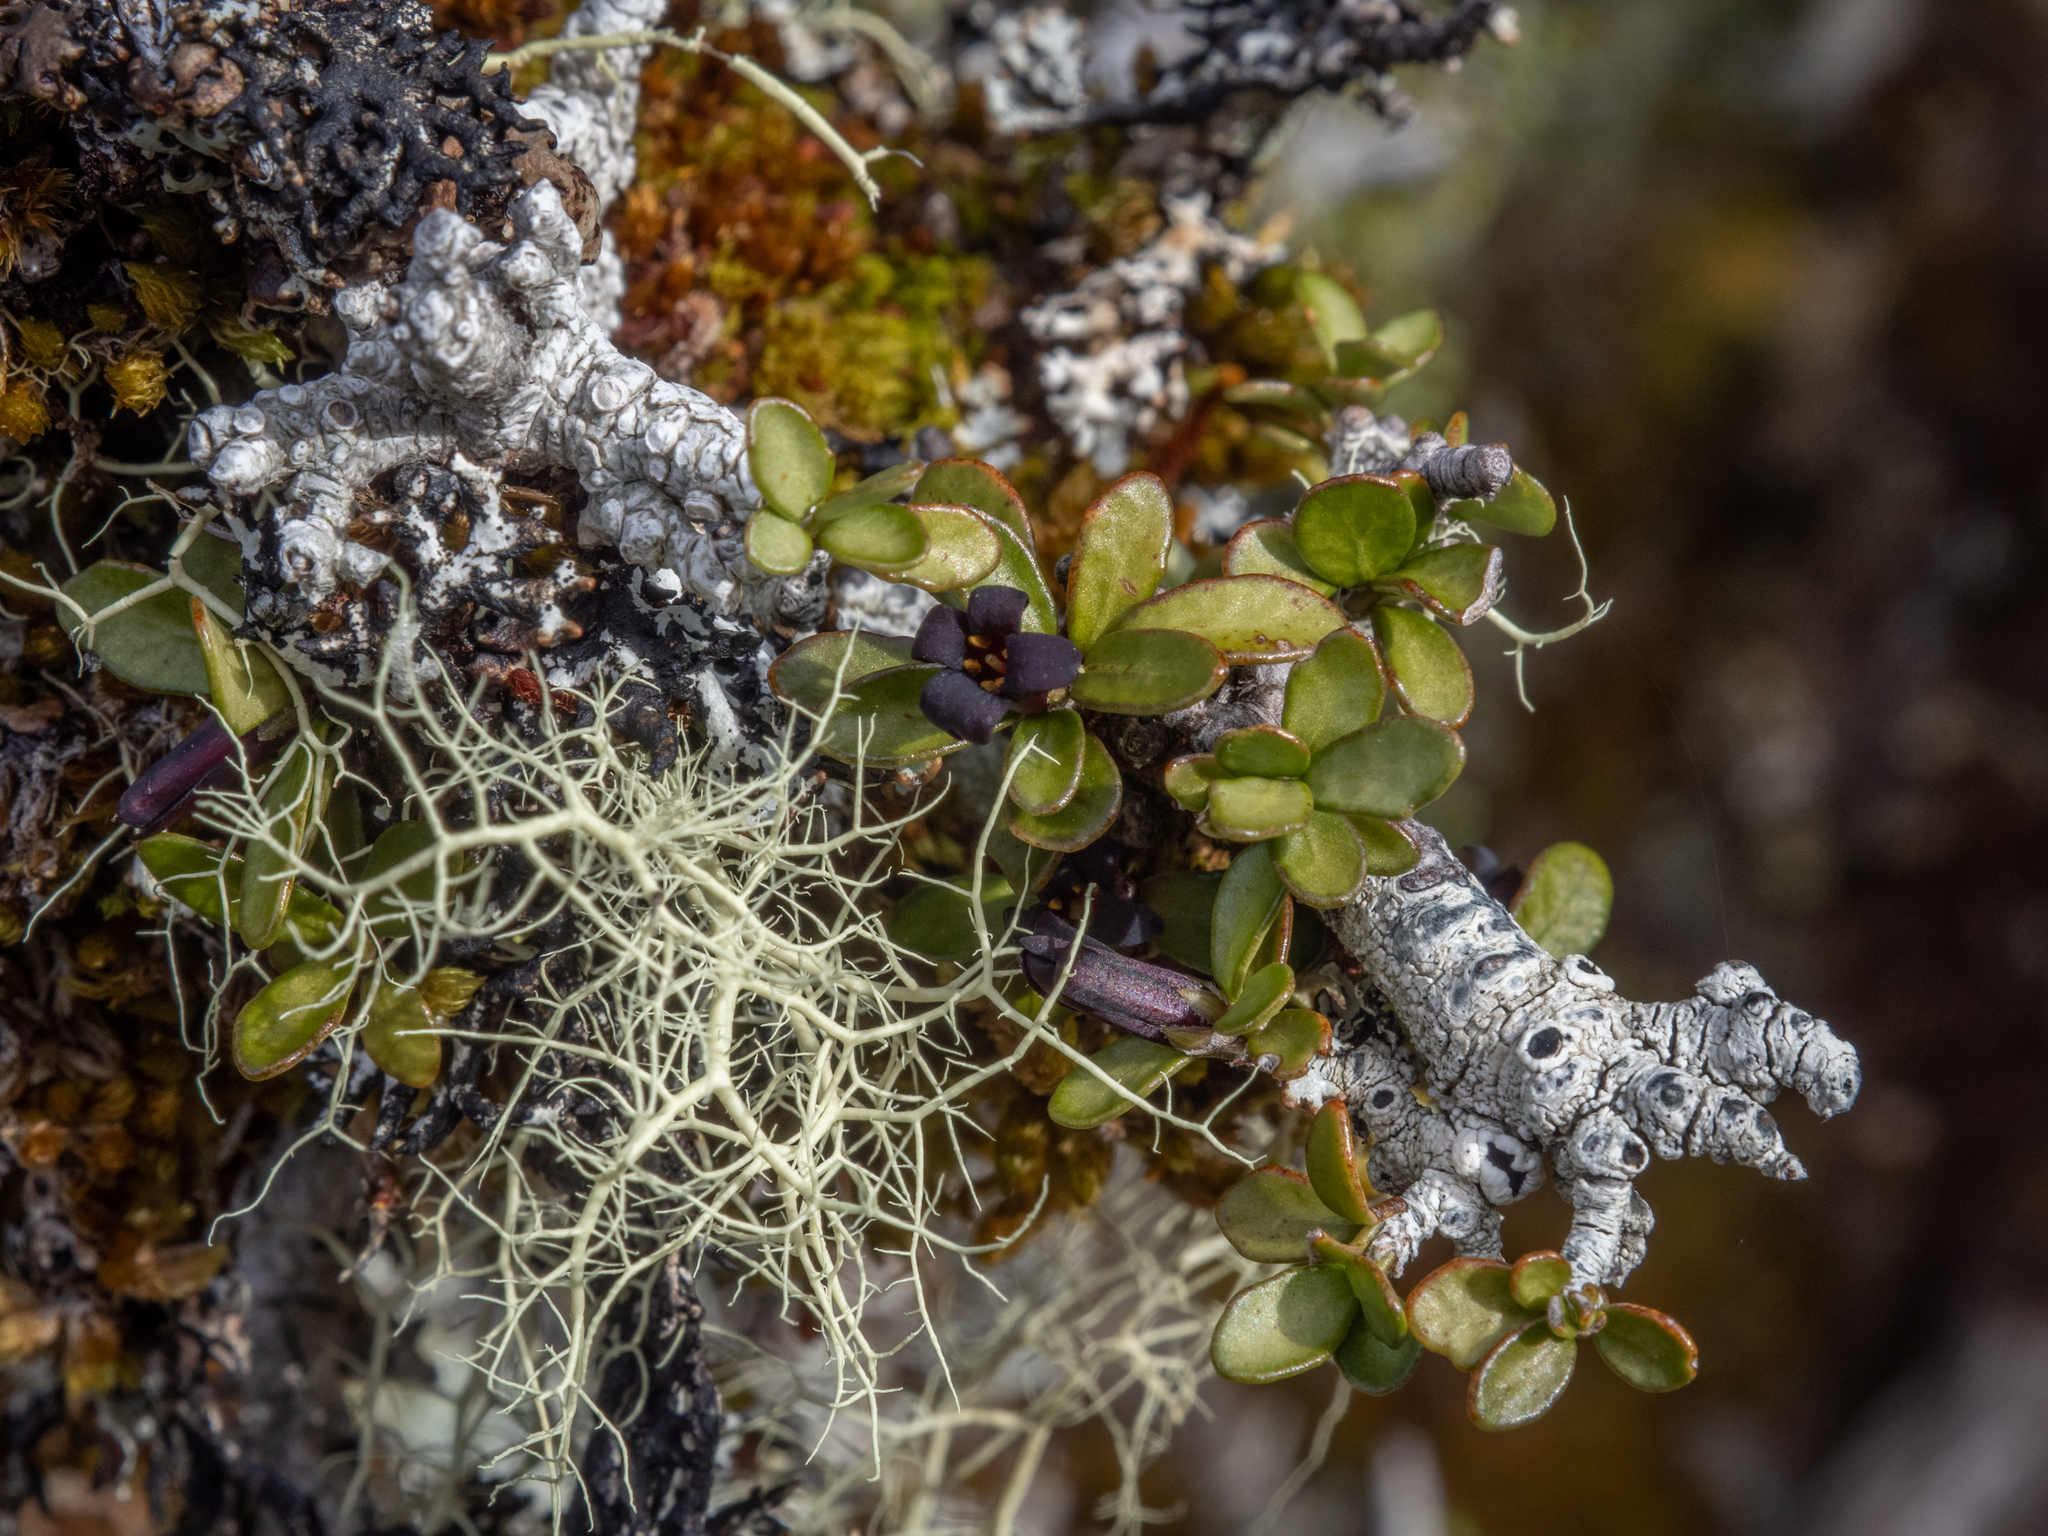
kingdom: Plantae
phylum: Tracheophyta
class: Magnoliopsida
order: Apiales
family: Pittosporaceae
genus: Pittosporum
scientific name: Pittosporum rigidum
